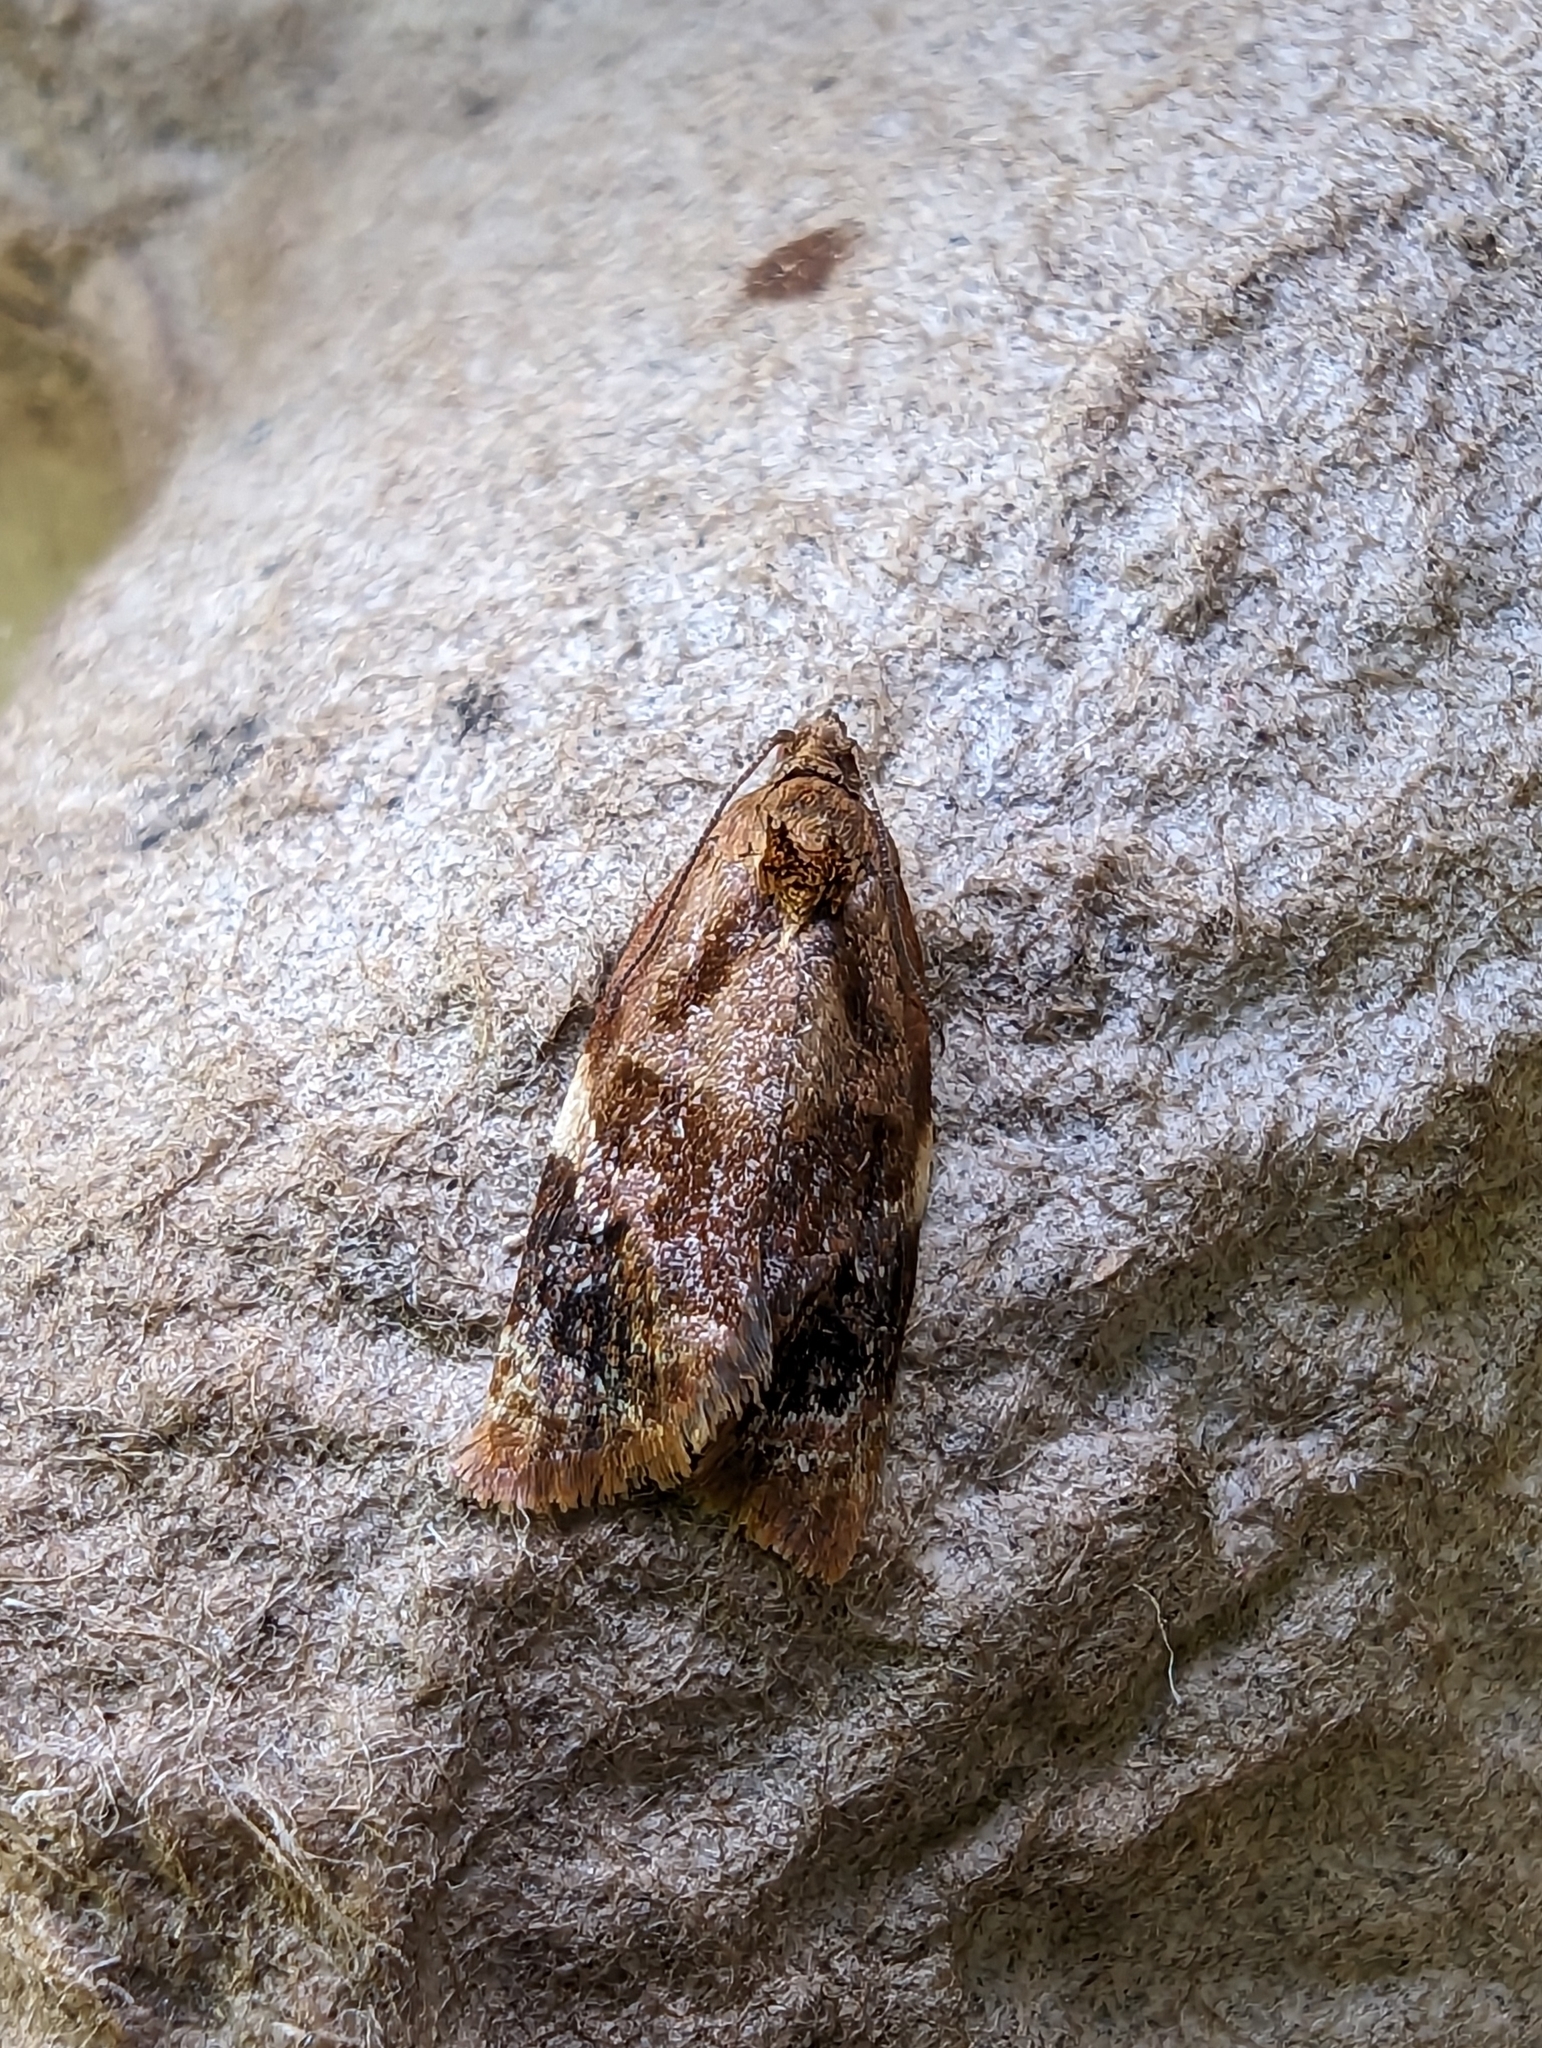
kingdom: Animalia
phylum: Arthropoda
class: Insecta
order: Lepidoptera
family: Tortricidae
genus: Ditula
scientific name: Ditula angustiorana
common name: Red-barred tortrix
